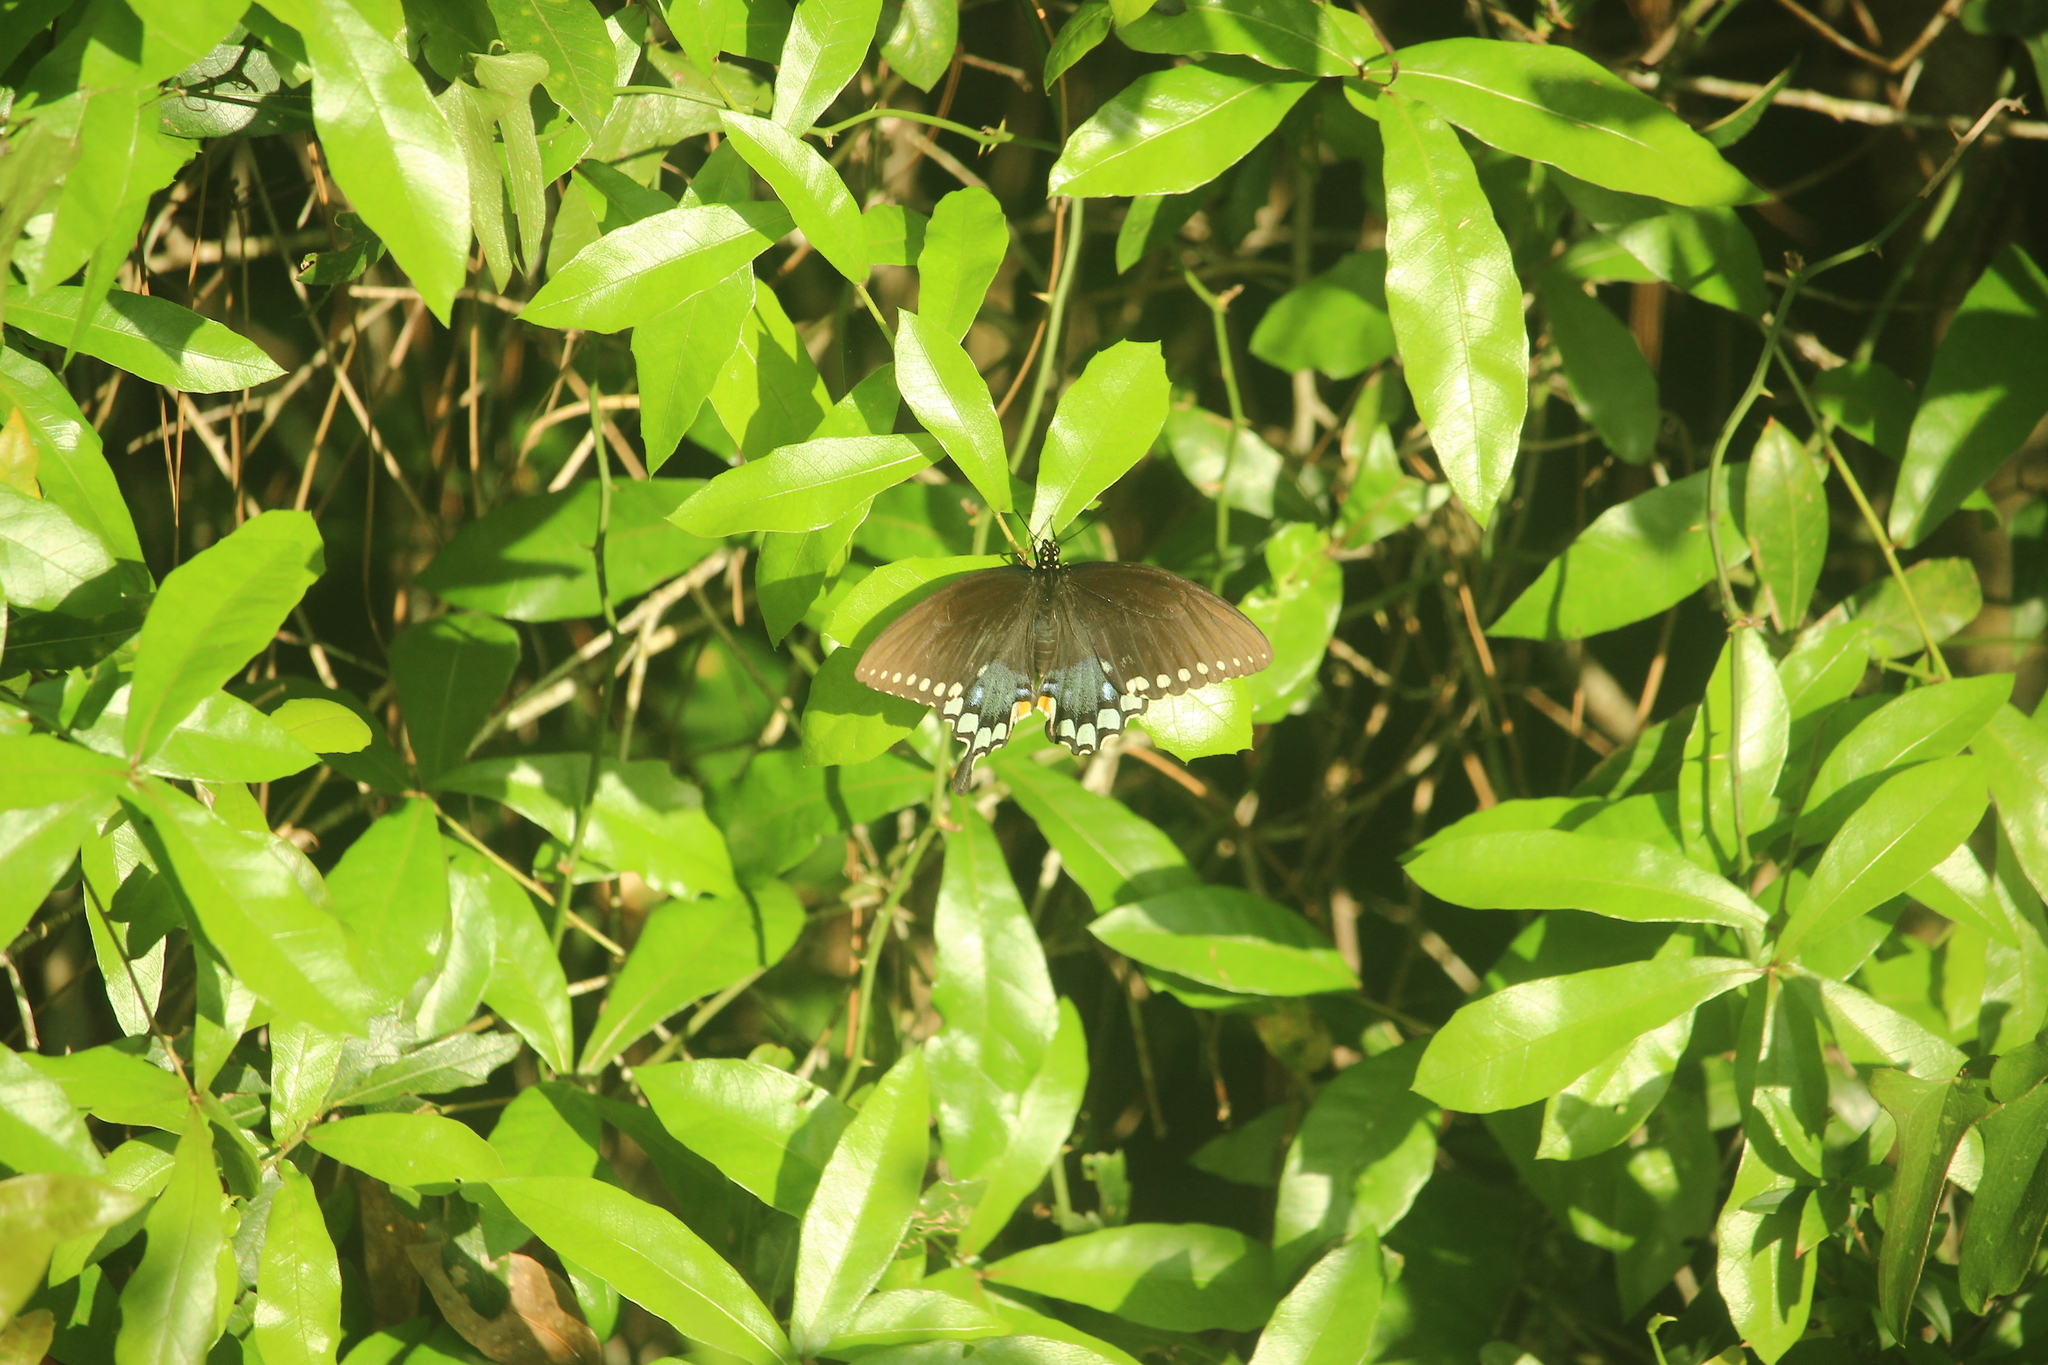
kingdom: Animalia
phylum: Arthropoda
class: Insecta
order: Lepidoptera
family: Papilionidae
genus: Papilio
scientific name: Papilio troilus
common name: Spicebush swallowtail
